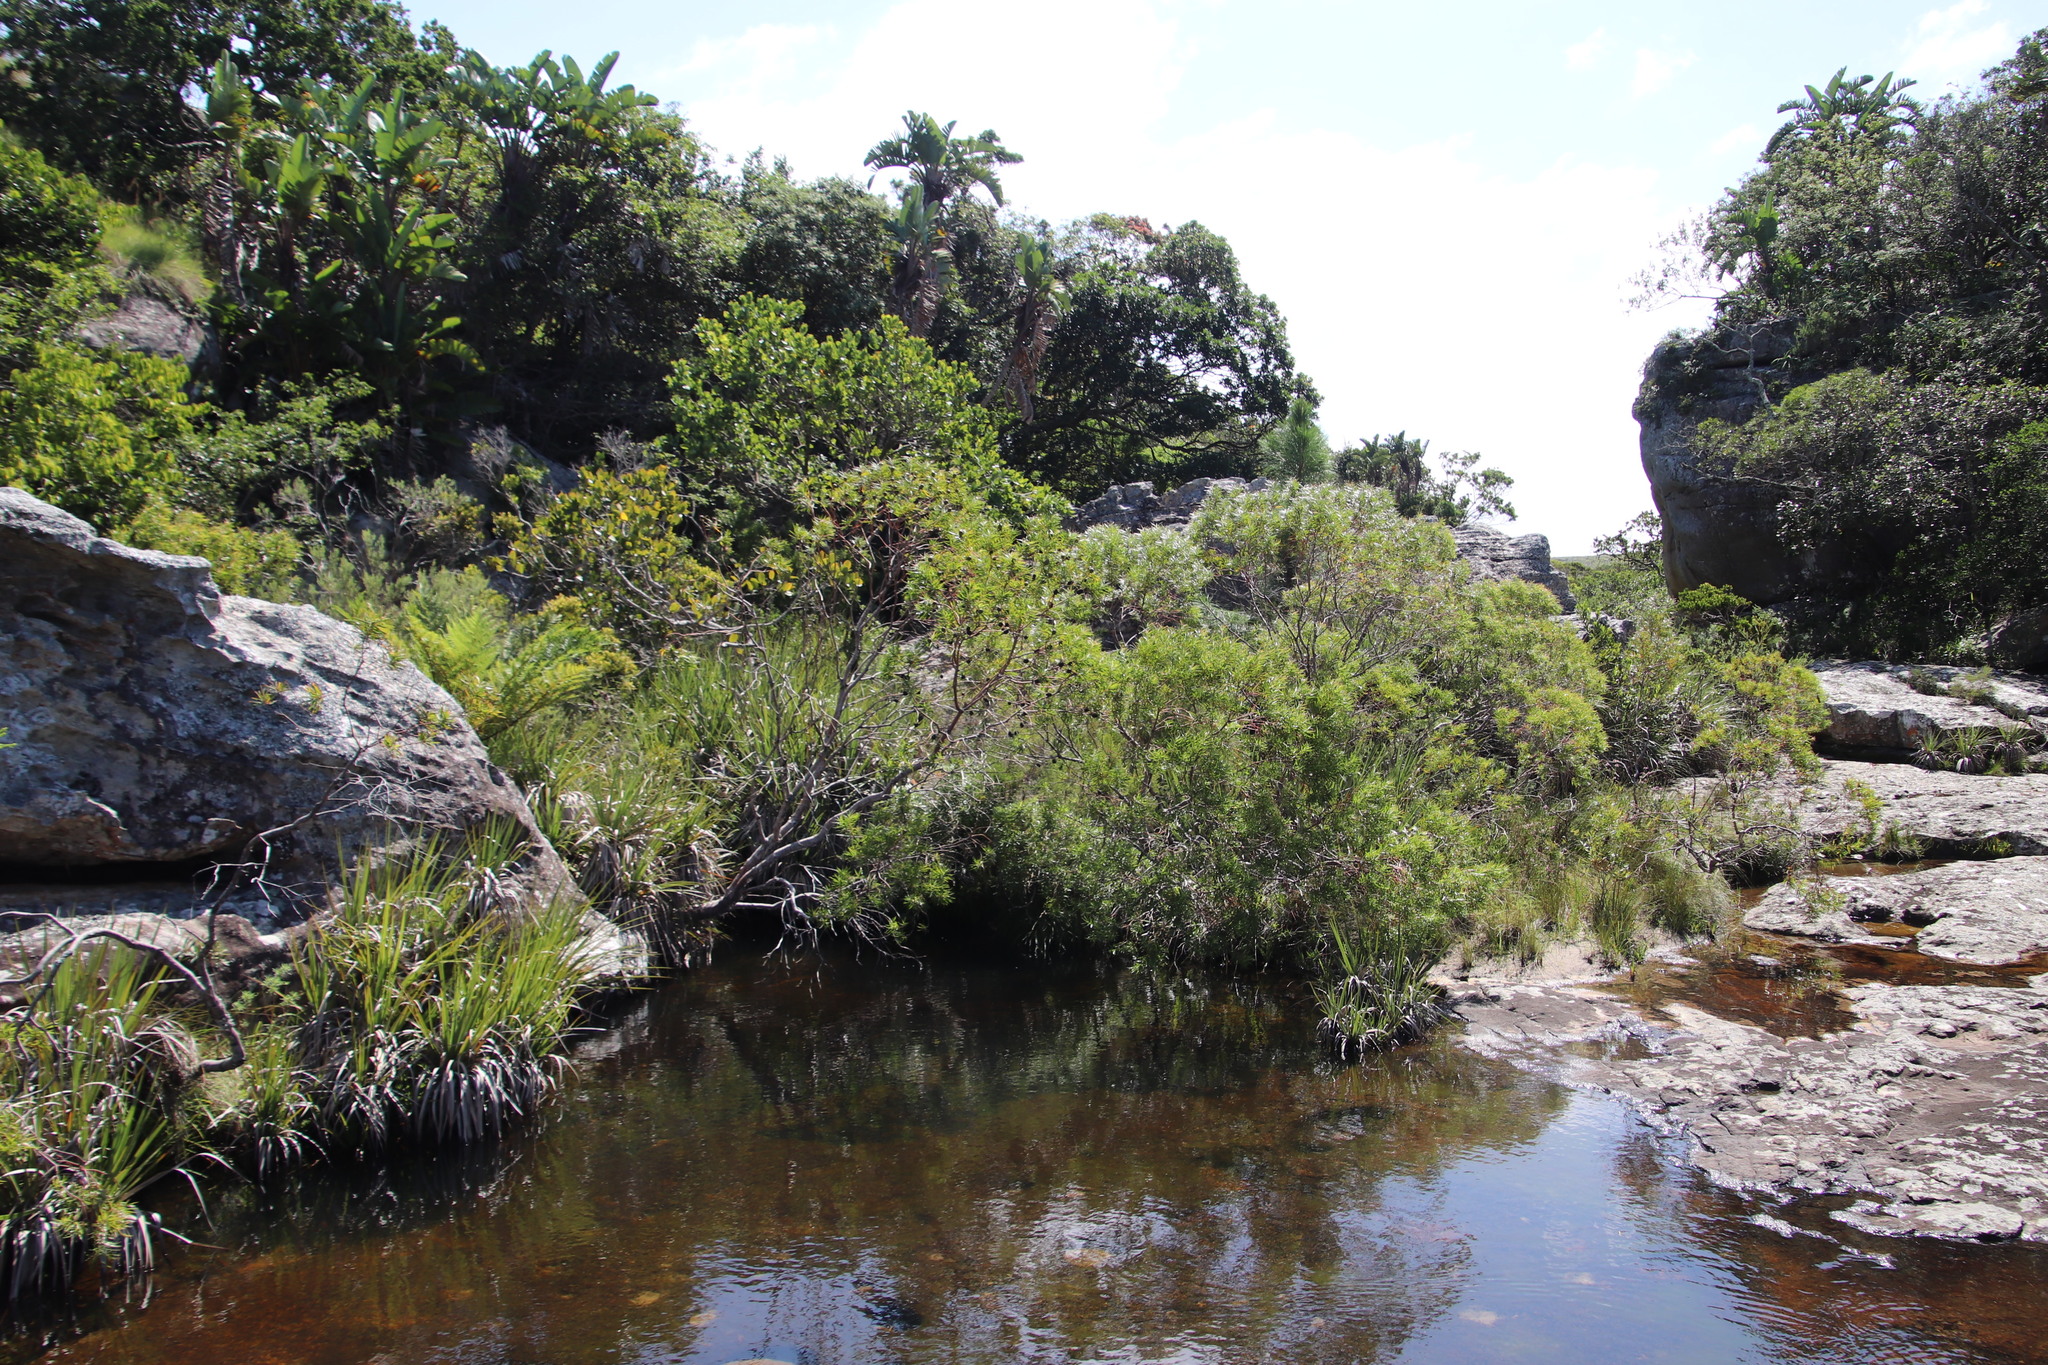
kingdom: Plantae
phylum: Tracheophyta
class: Magnoliopsida
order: Proteales
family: Proteaceae
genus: Leucadendron
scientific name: Leucadendron pondoense
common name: Pondoland conebush
